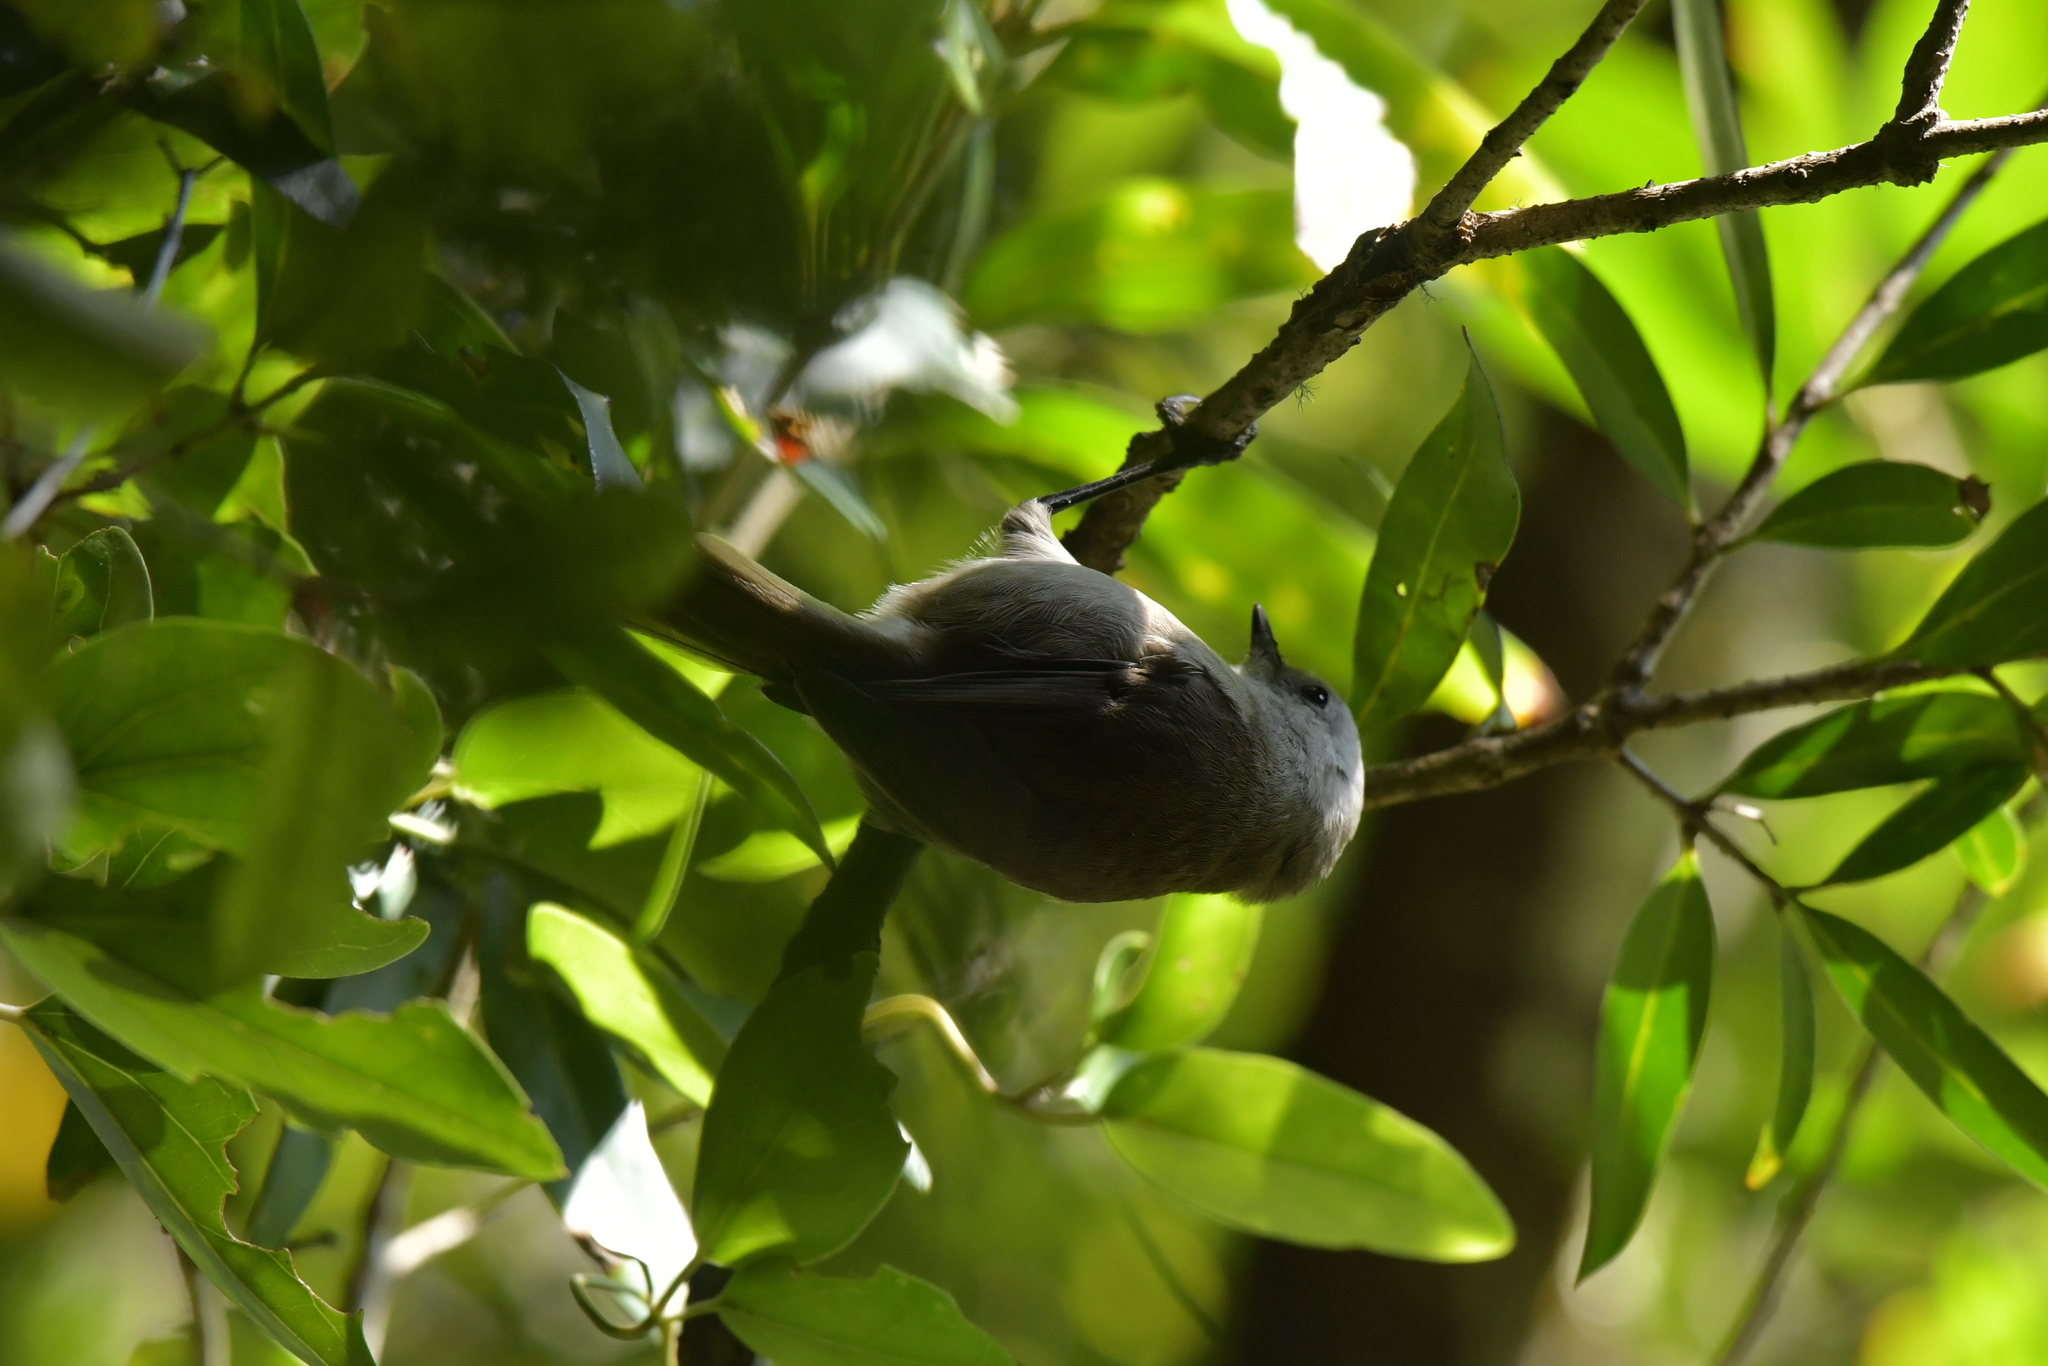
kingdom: Animalia
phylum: Chordata
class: Aves
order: Passeriformes
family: Acanthizidae
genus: Mohoua
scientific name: Mohoua albicilla
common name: Whitehead
